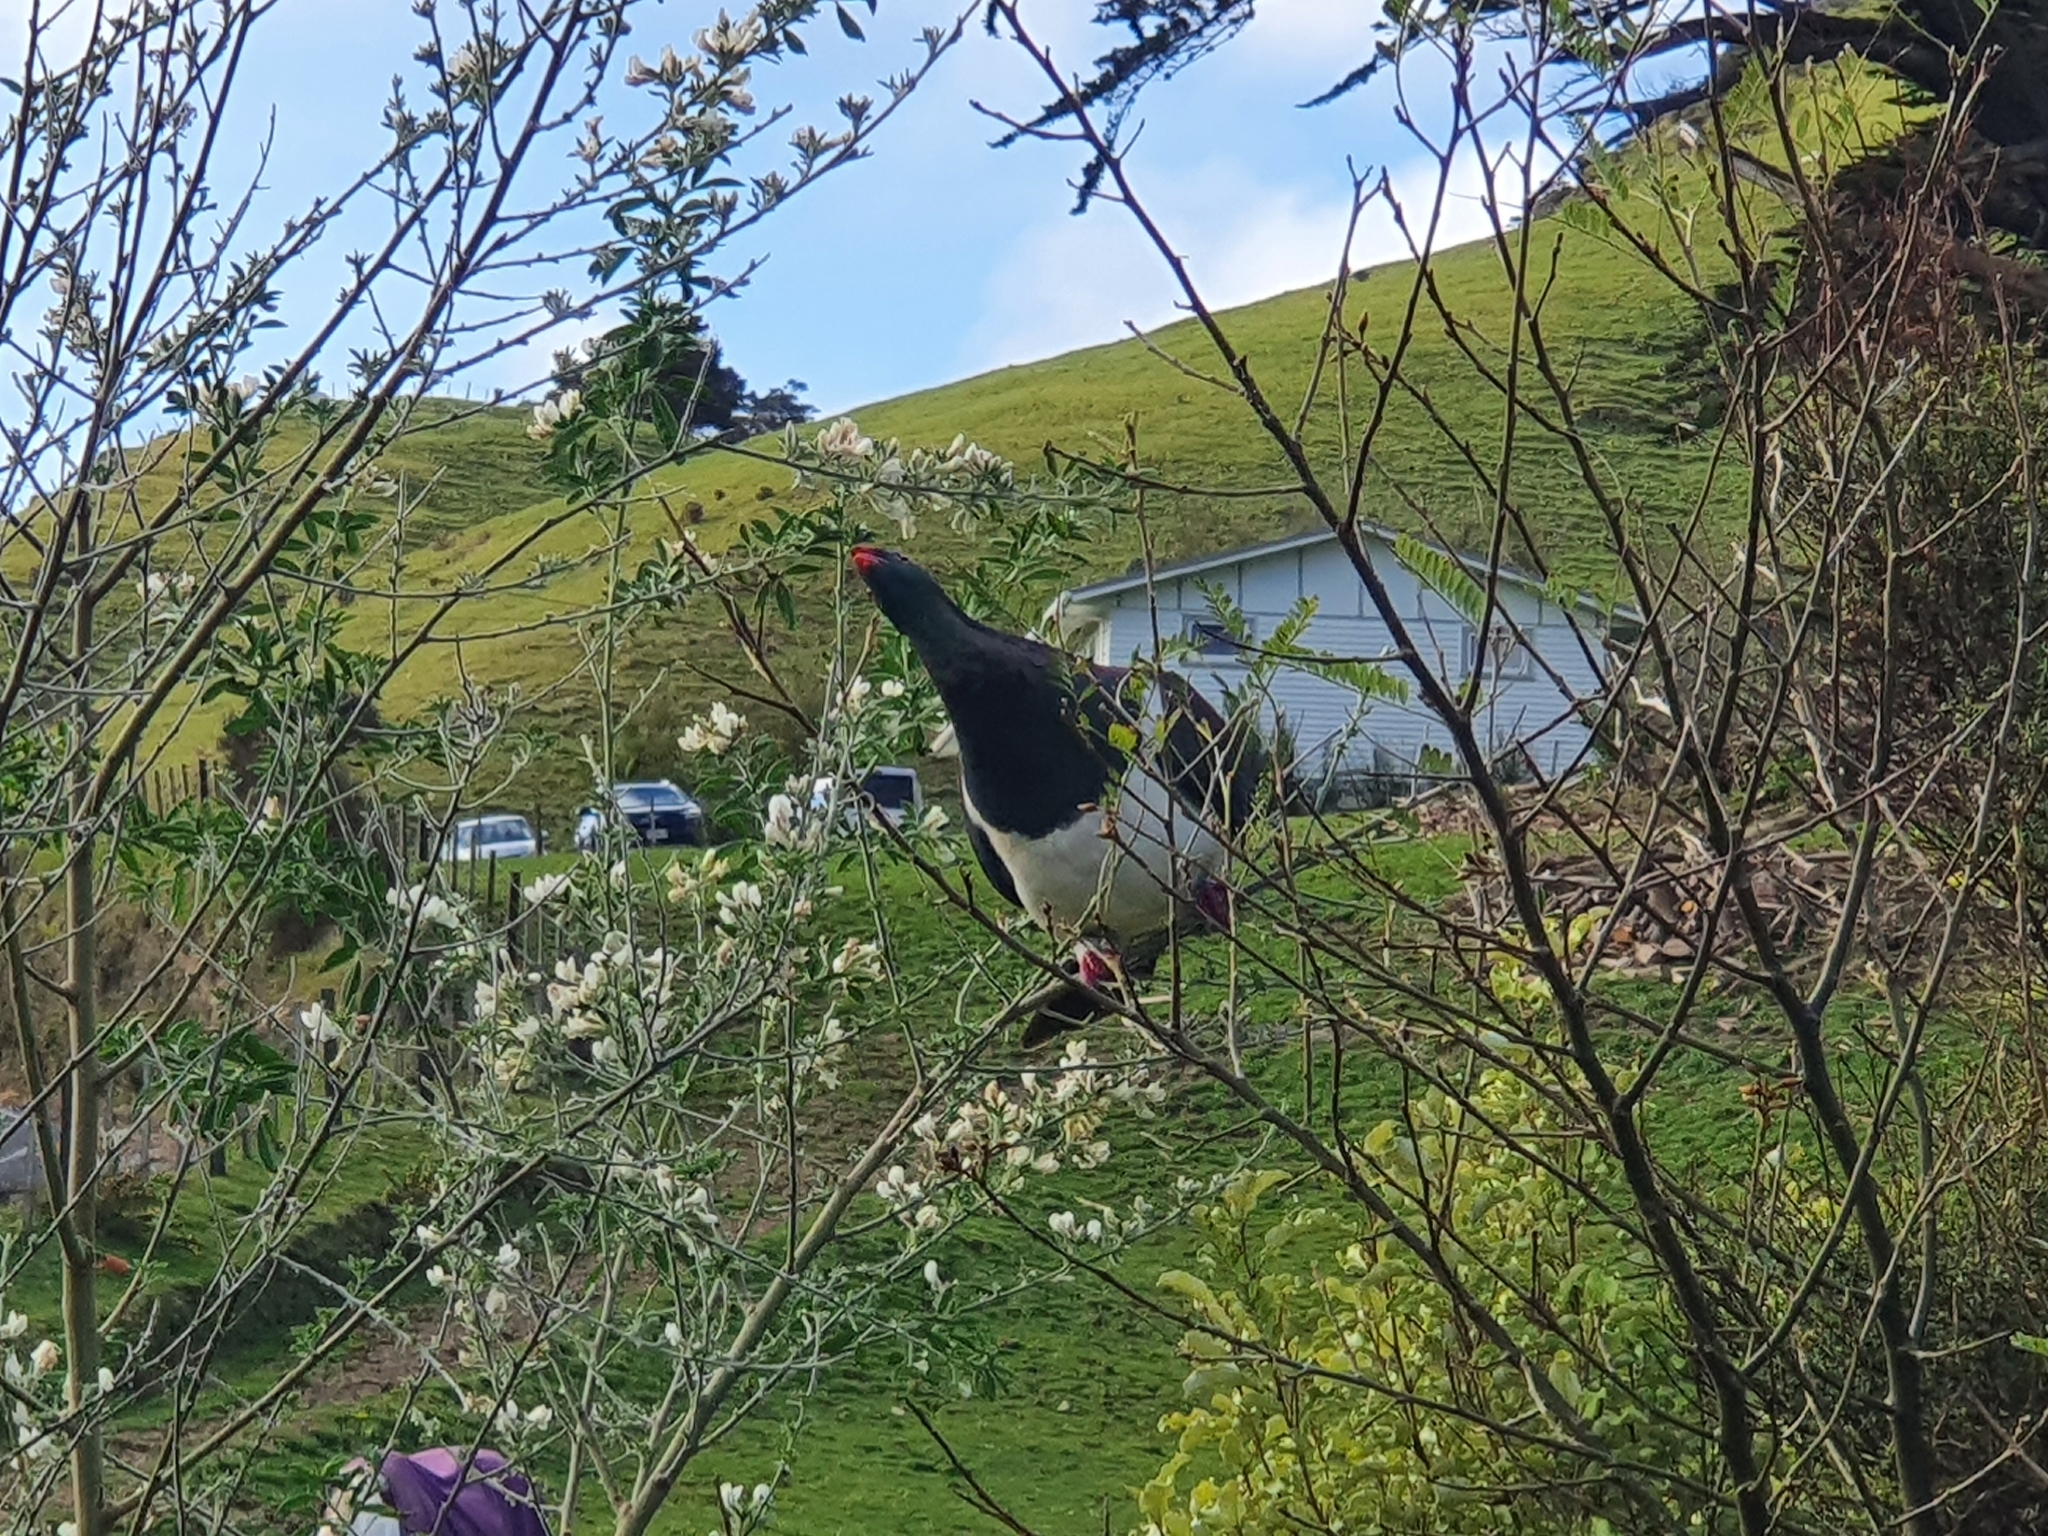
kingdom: Animalia
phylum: Chordata
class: Aves
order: Columbiformes
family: Columbidae
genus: Hemiphaga
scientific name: Hemiphaga novaeseelandiae
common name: New zealand pigeon
